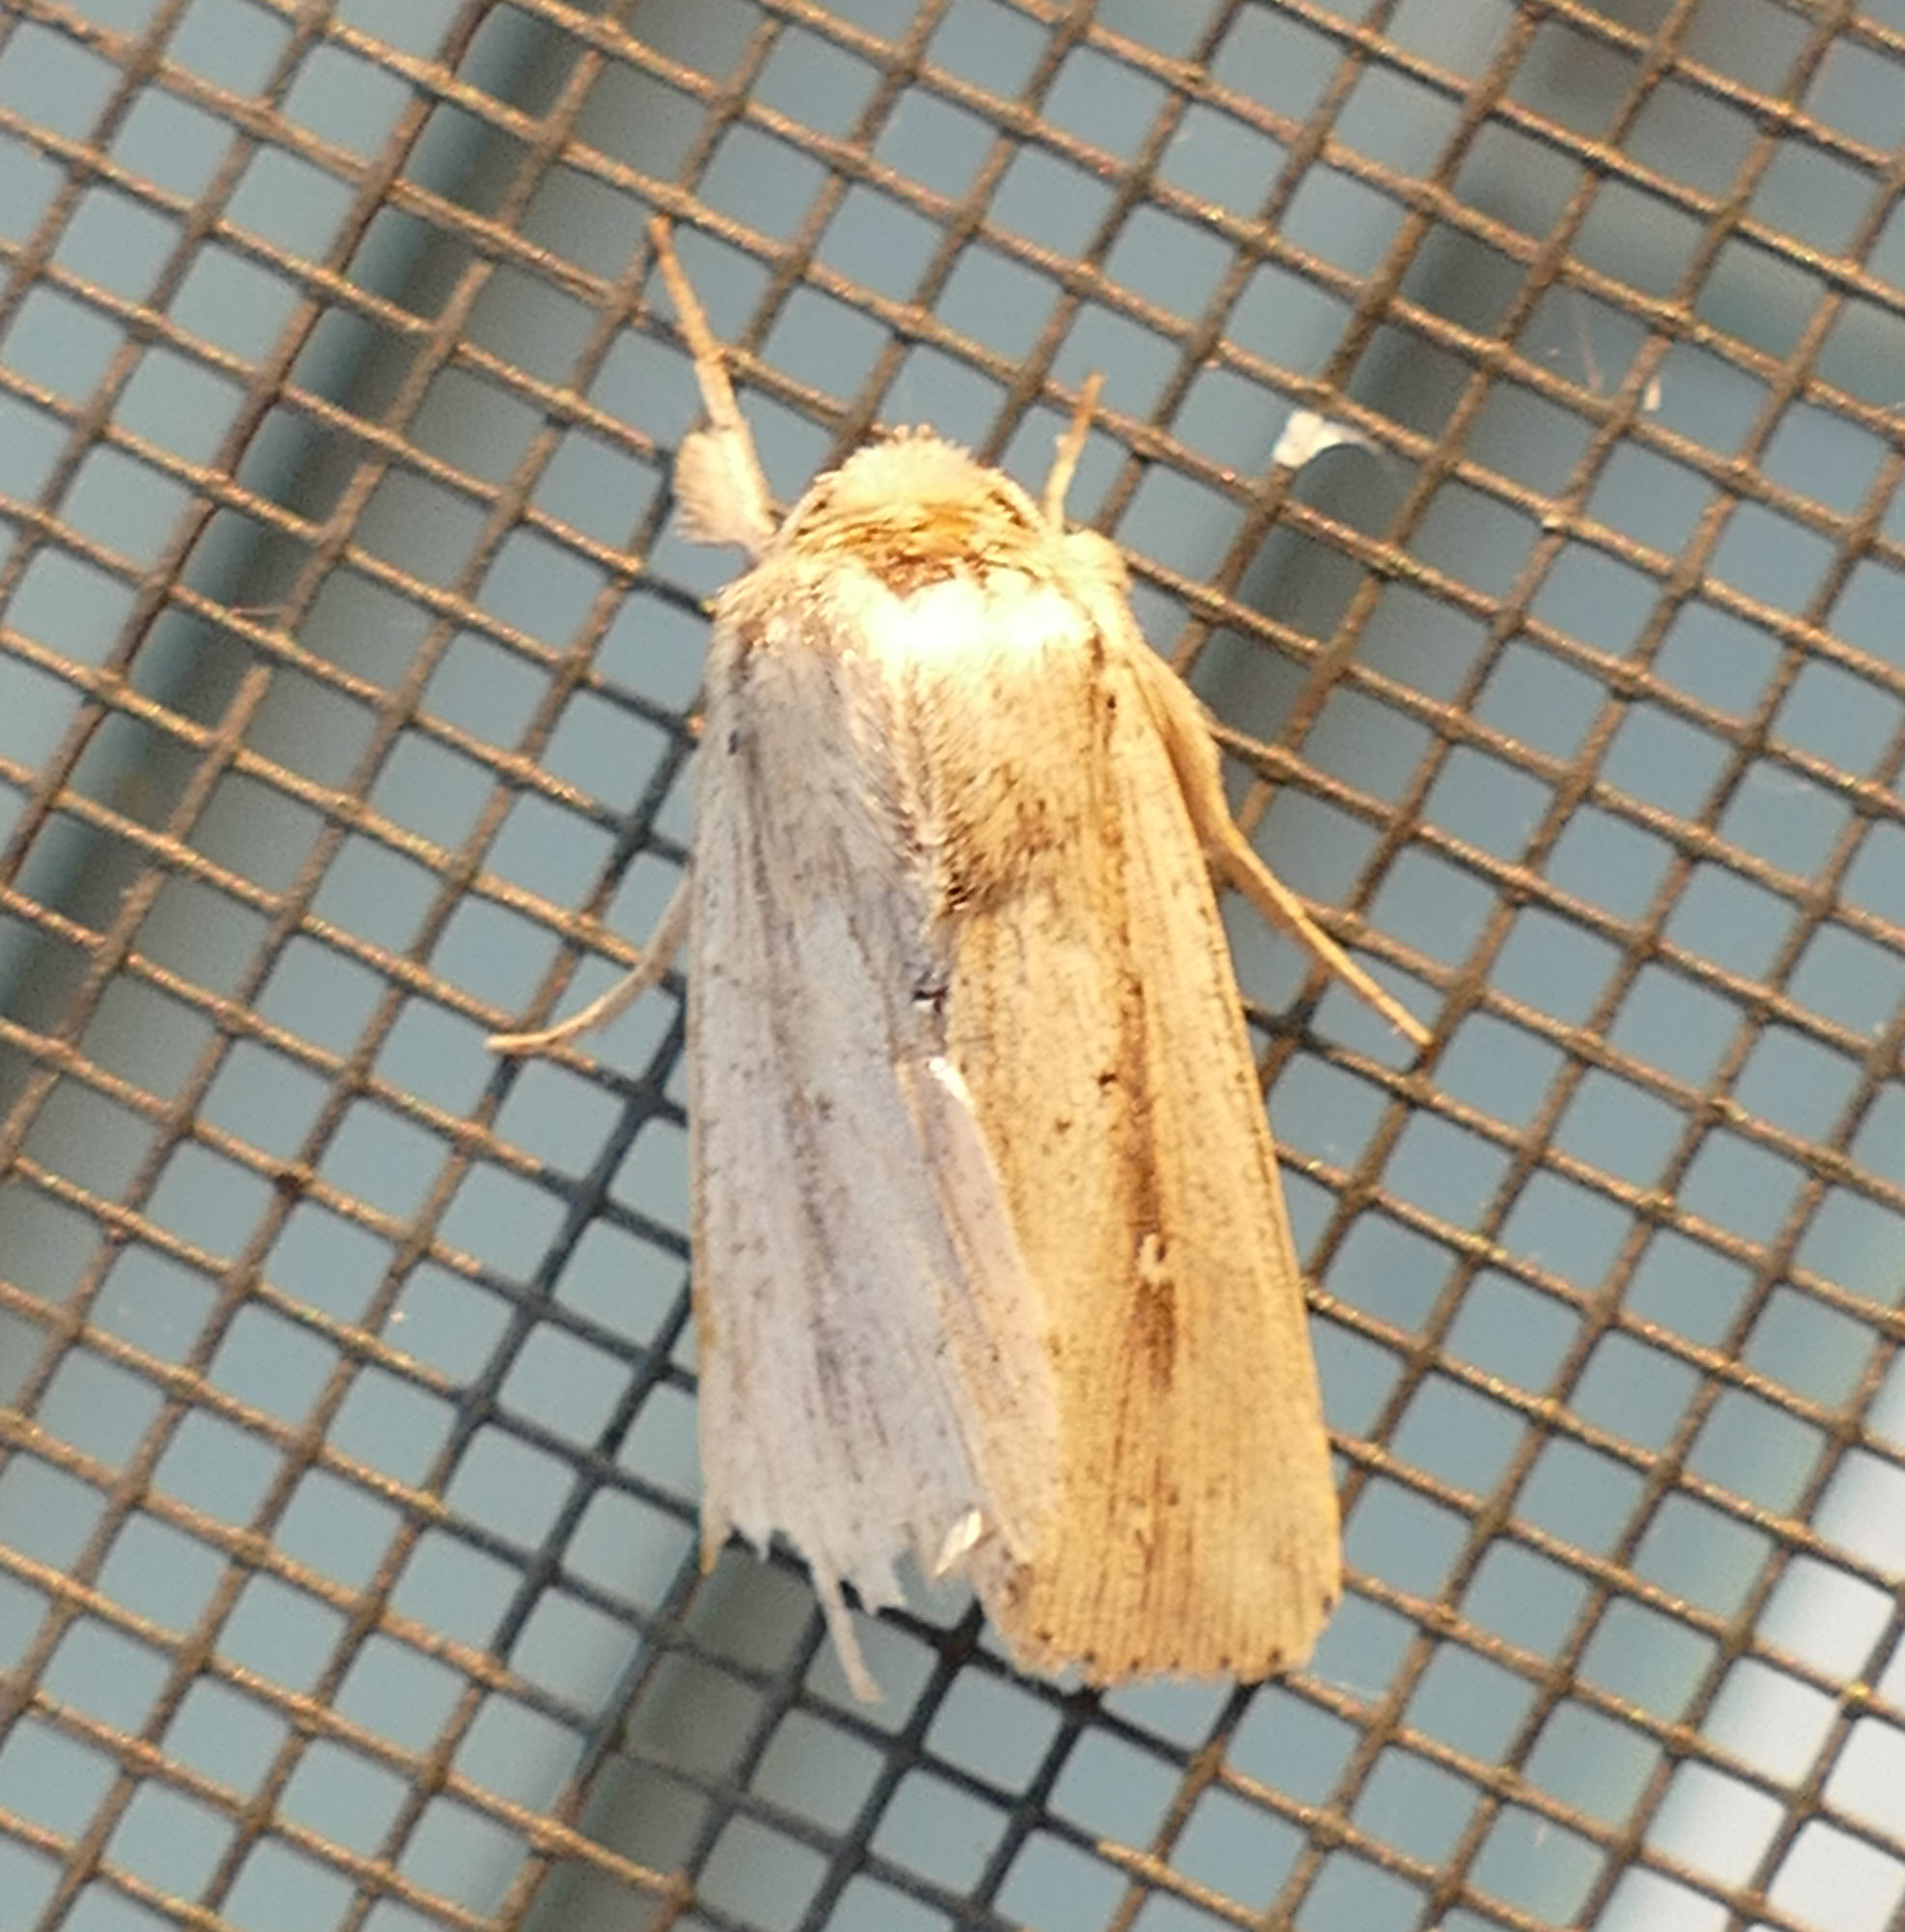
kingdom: Animalia
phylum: Arthropoda
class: Insecta
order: Lepidoptera
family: Noctuidae
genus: Leucania
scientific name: Leucania incognita
